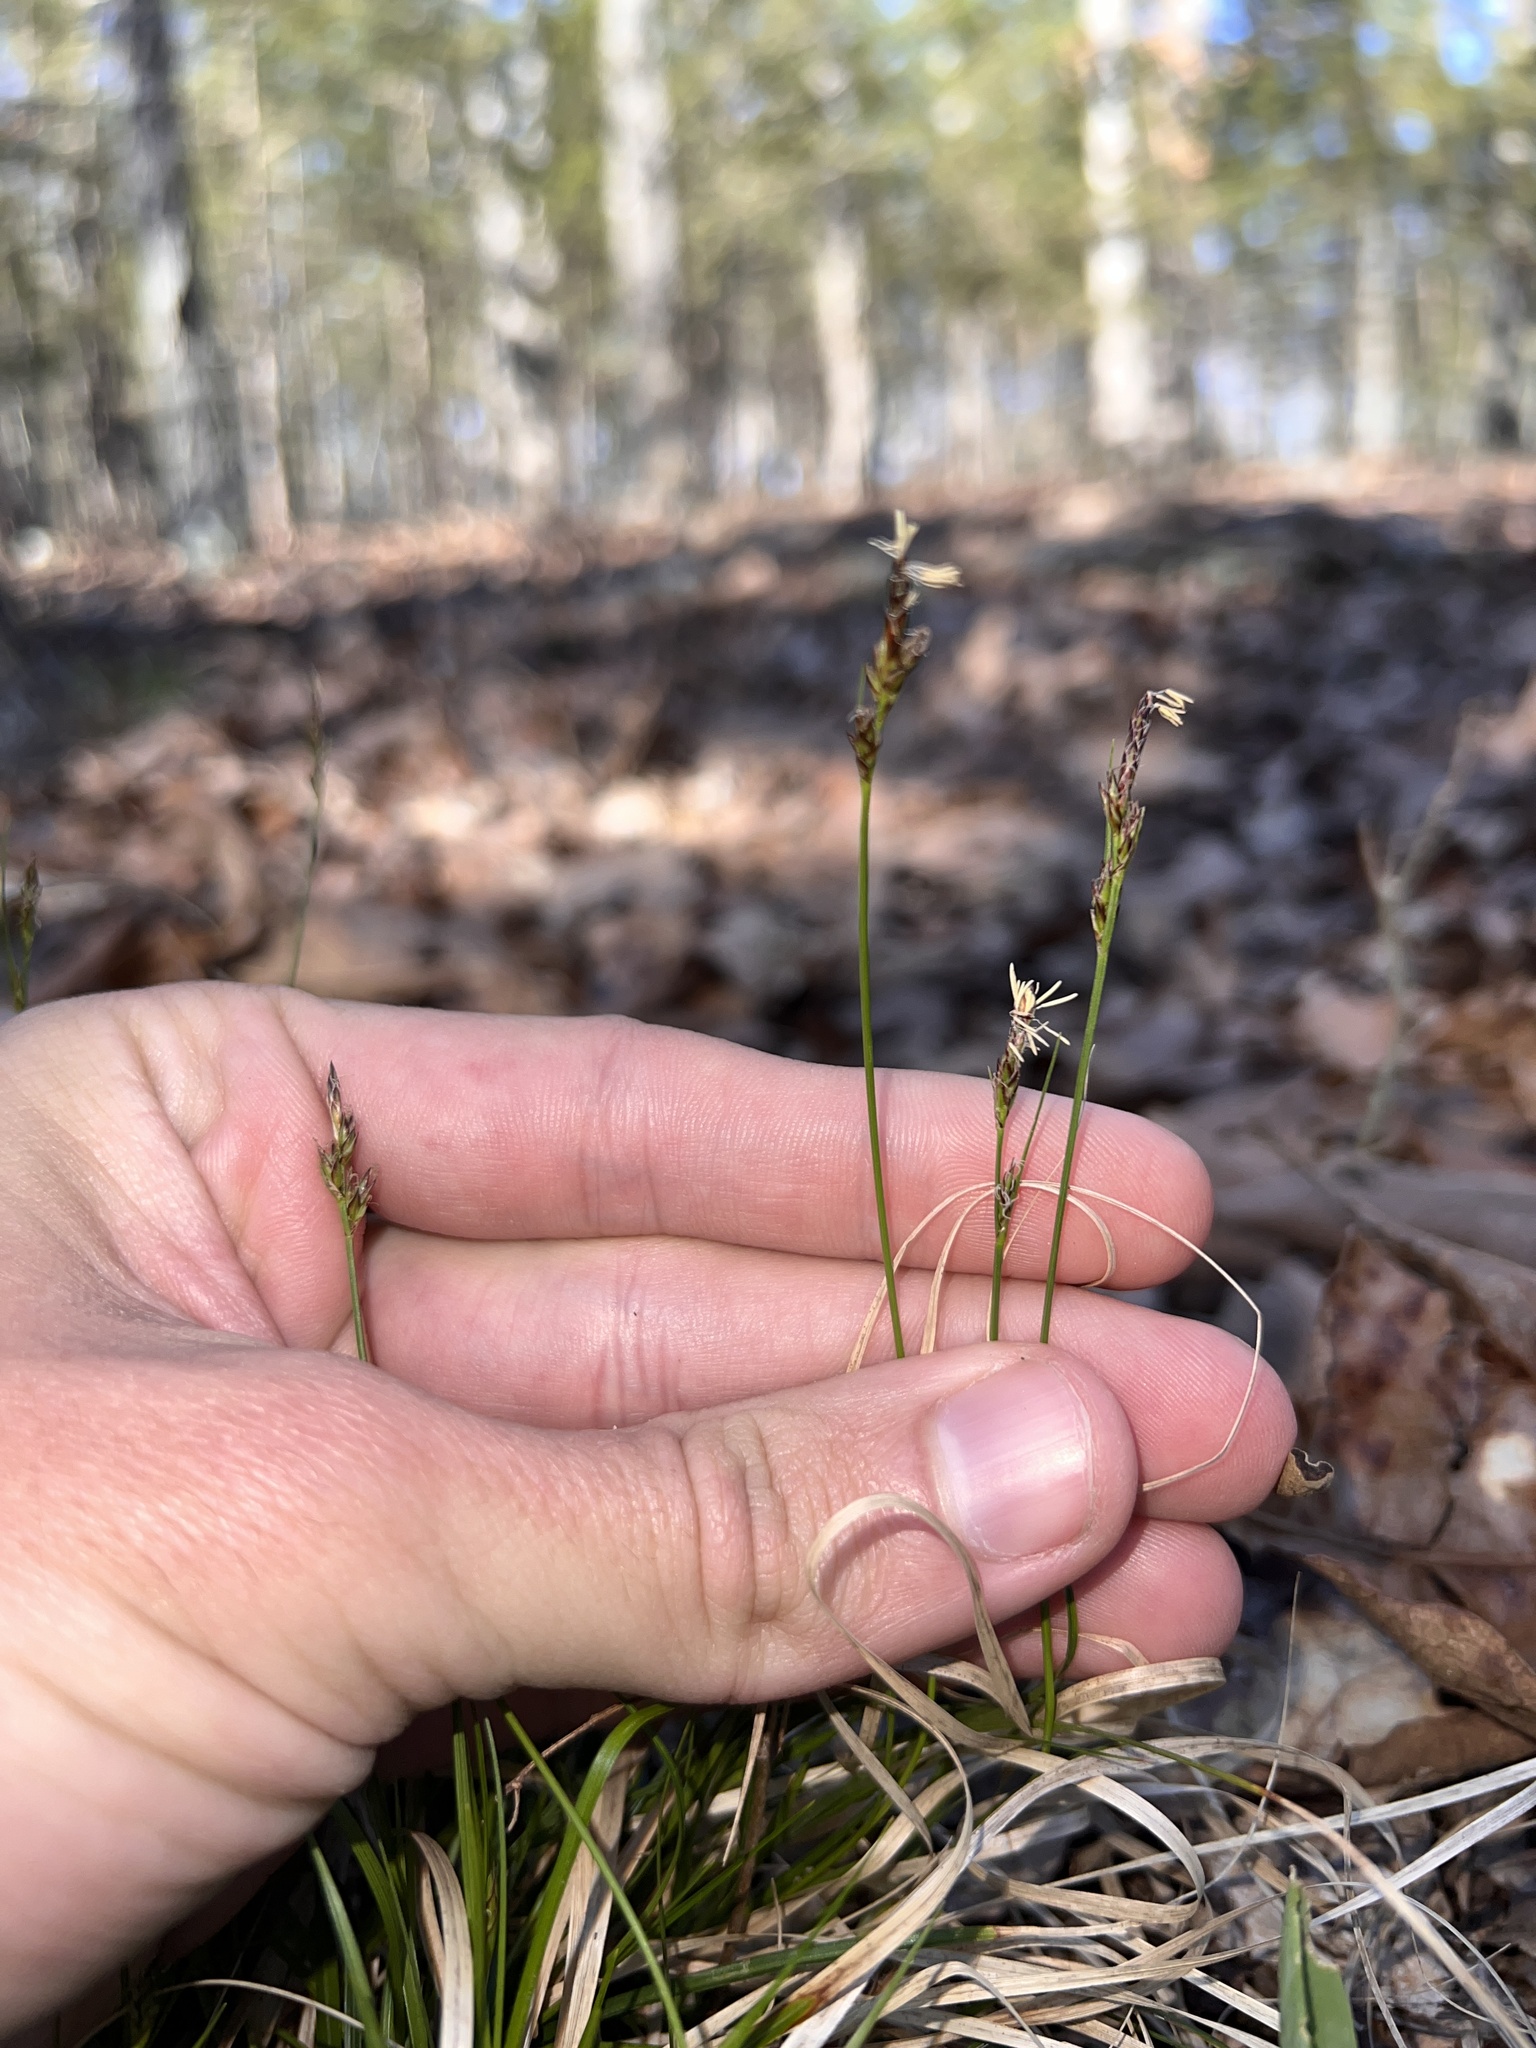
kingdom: Plantae
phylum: Tracheophyta
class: Liliopsida
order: Poales
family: Cyperaceae
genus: Carex
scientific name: Carex albicans
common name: Bellow-beaked sedge
